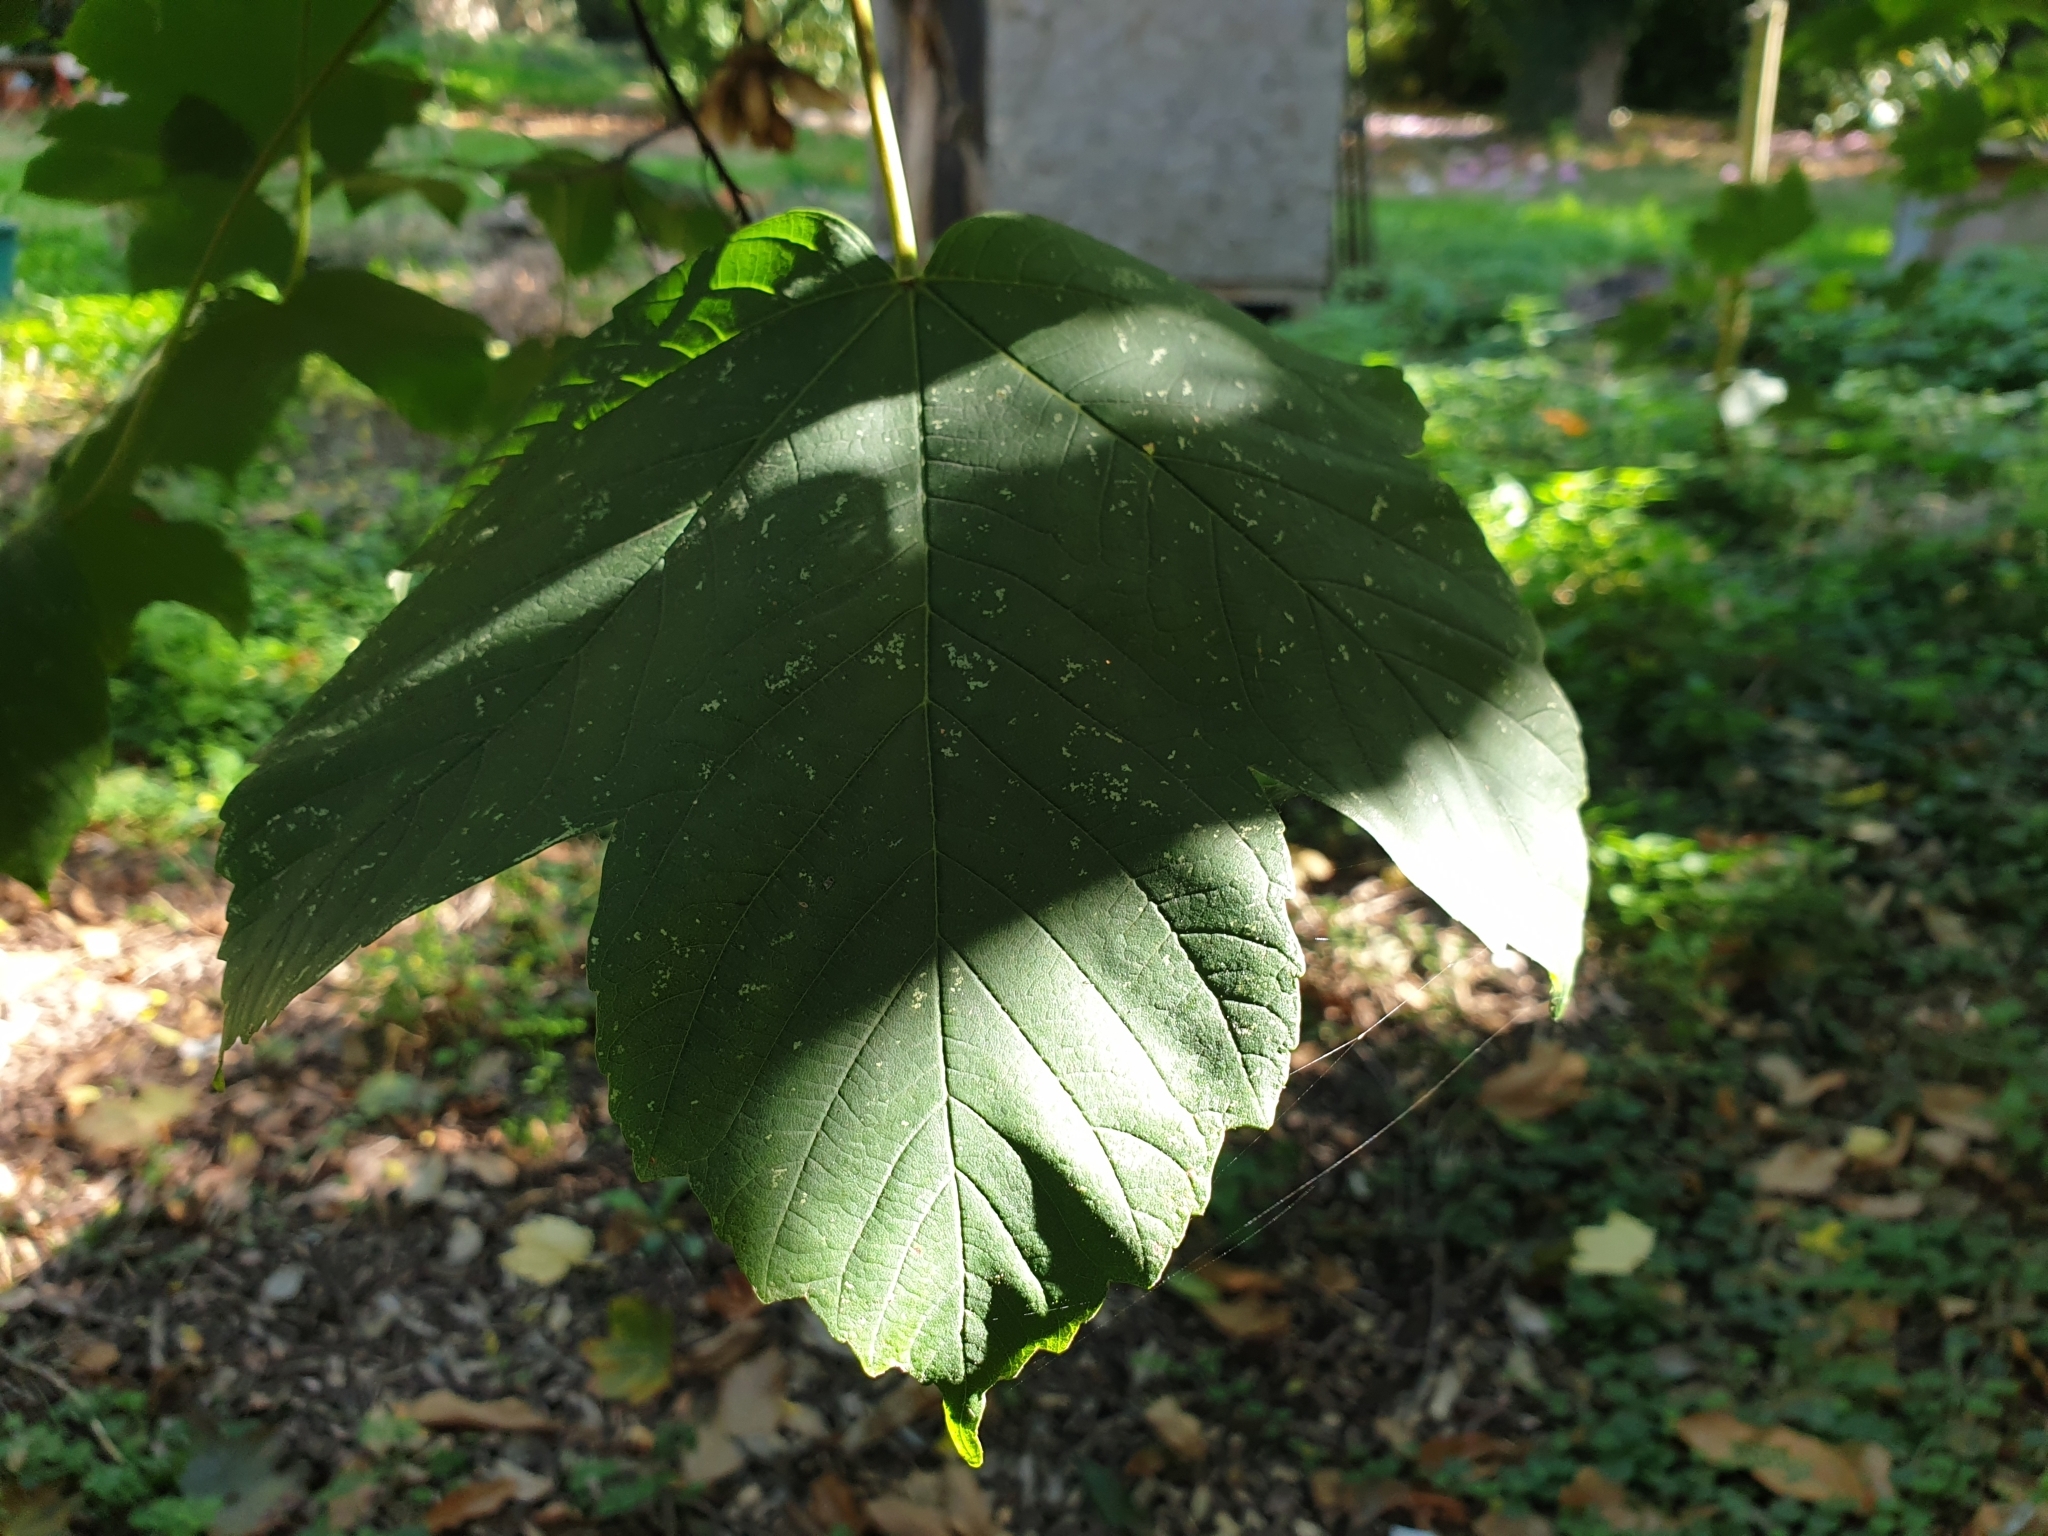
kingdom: Plantae
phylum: Tracheophyta
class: Magnoliopsida
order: Sapindales
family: Sapindaceae
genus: Acer
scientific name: Acer pseudoplatanus
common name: Sycamore
